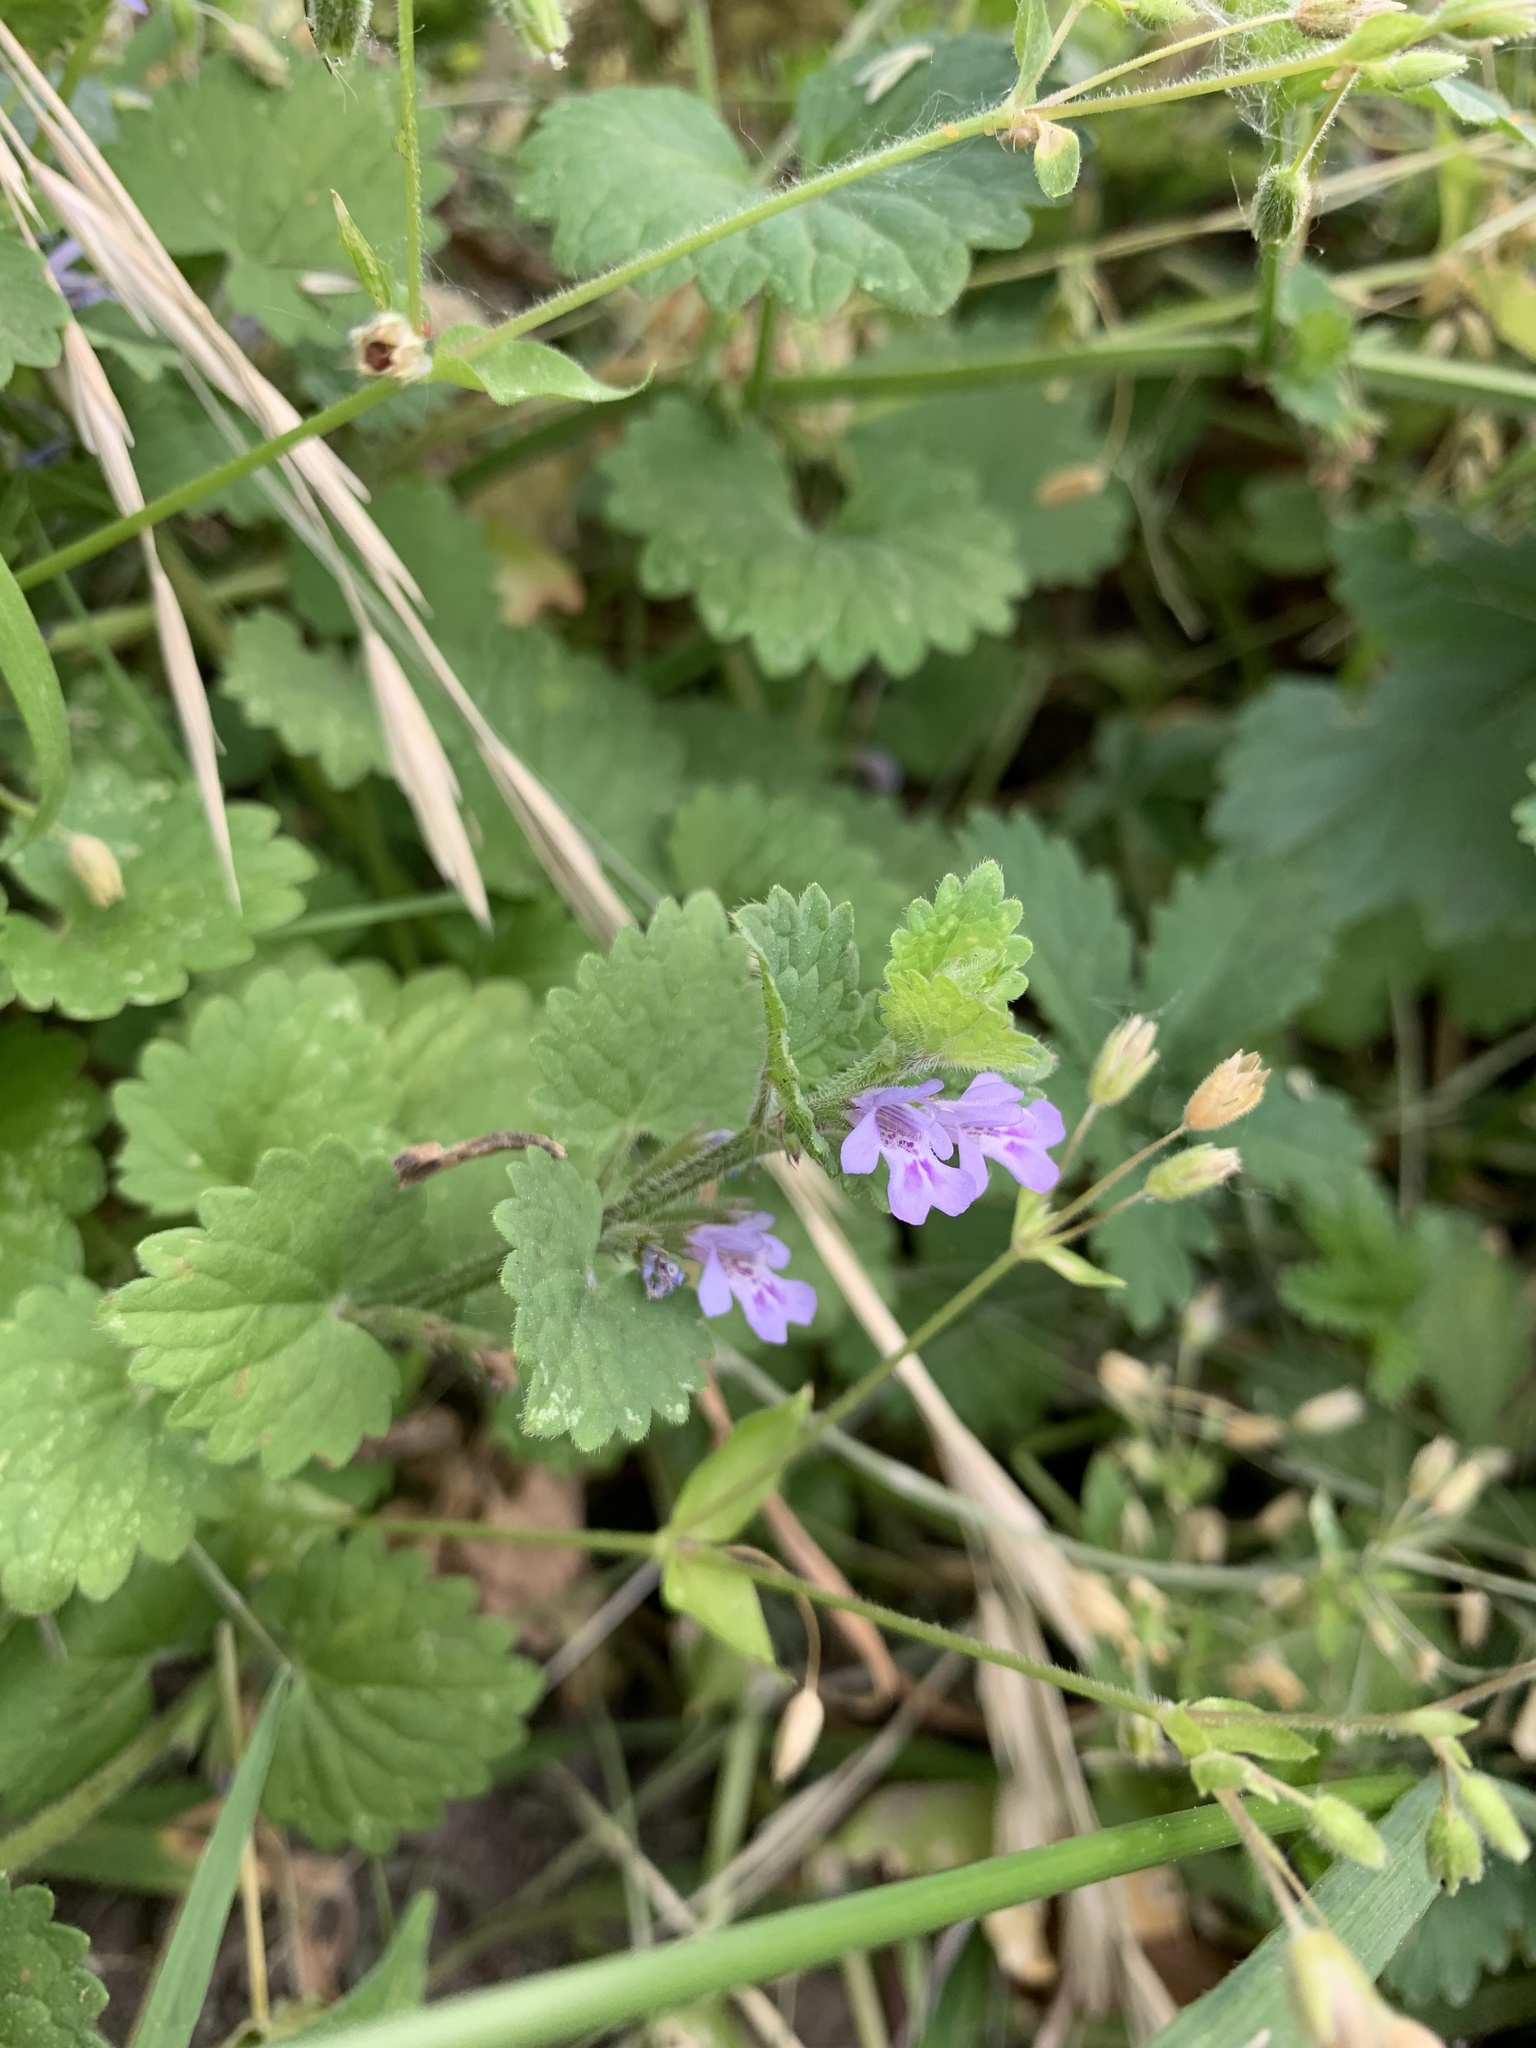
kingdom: Plantae
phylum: Tracheophyta
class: Magnoliopsida
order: Lamiales
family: Lamiaceae
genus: Glechoma
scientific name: Glechoma hederacea
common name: Ground ivy
